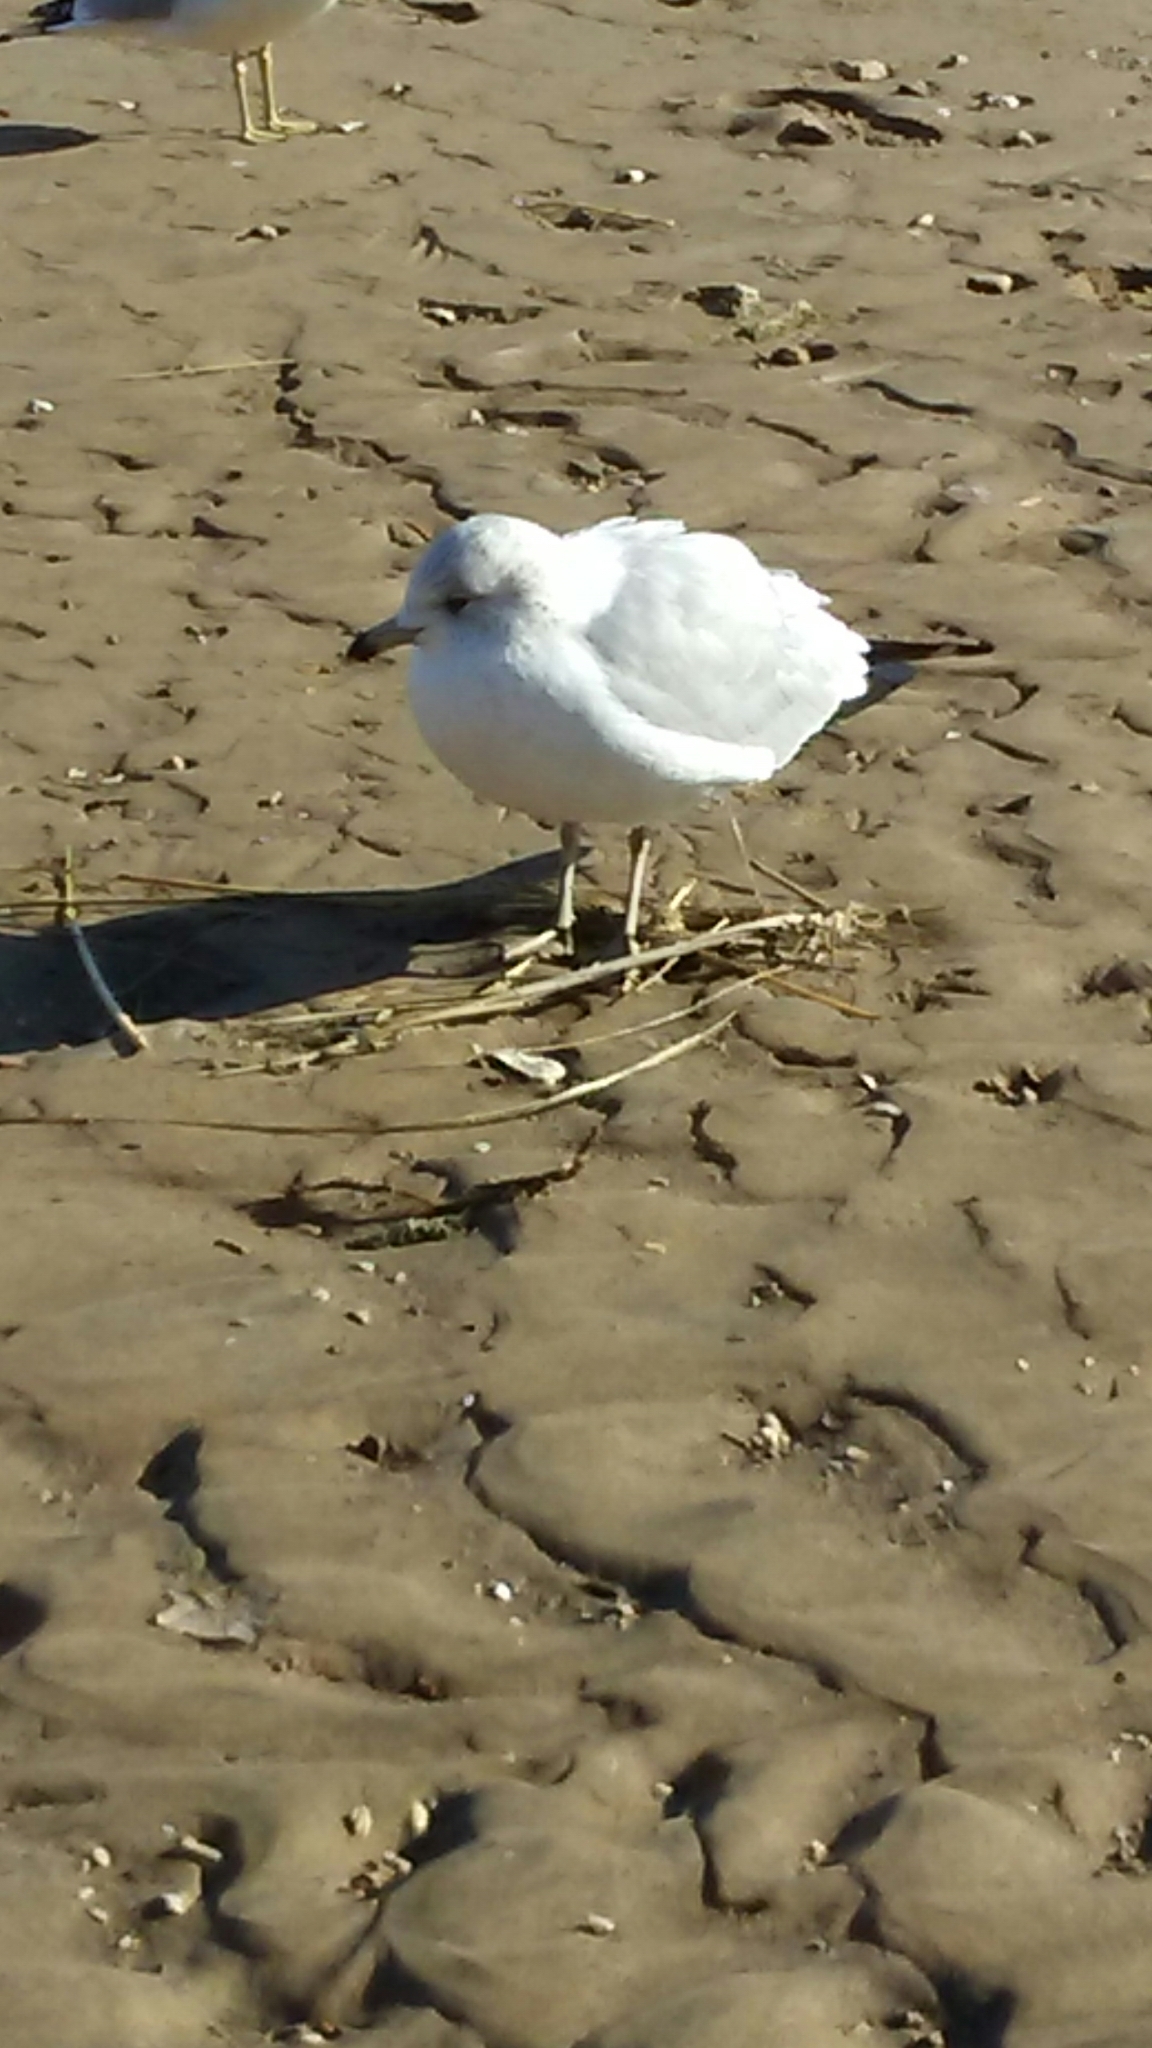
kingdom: Animalia
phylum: Chordata
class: Aves
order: Charadriiformes
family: Laridae
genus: Larus
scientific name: Larus delawarensis
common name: Ring-billed gull
